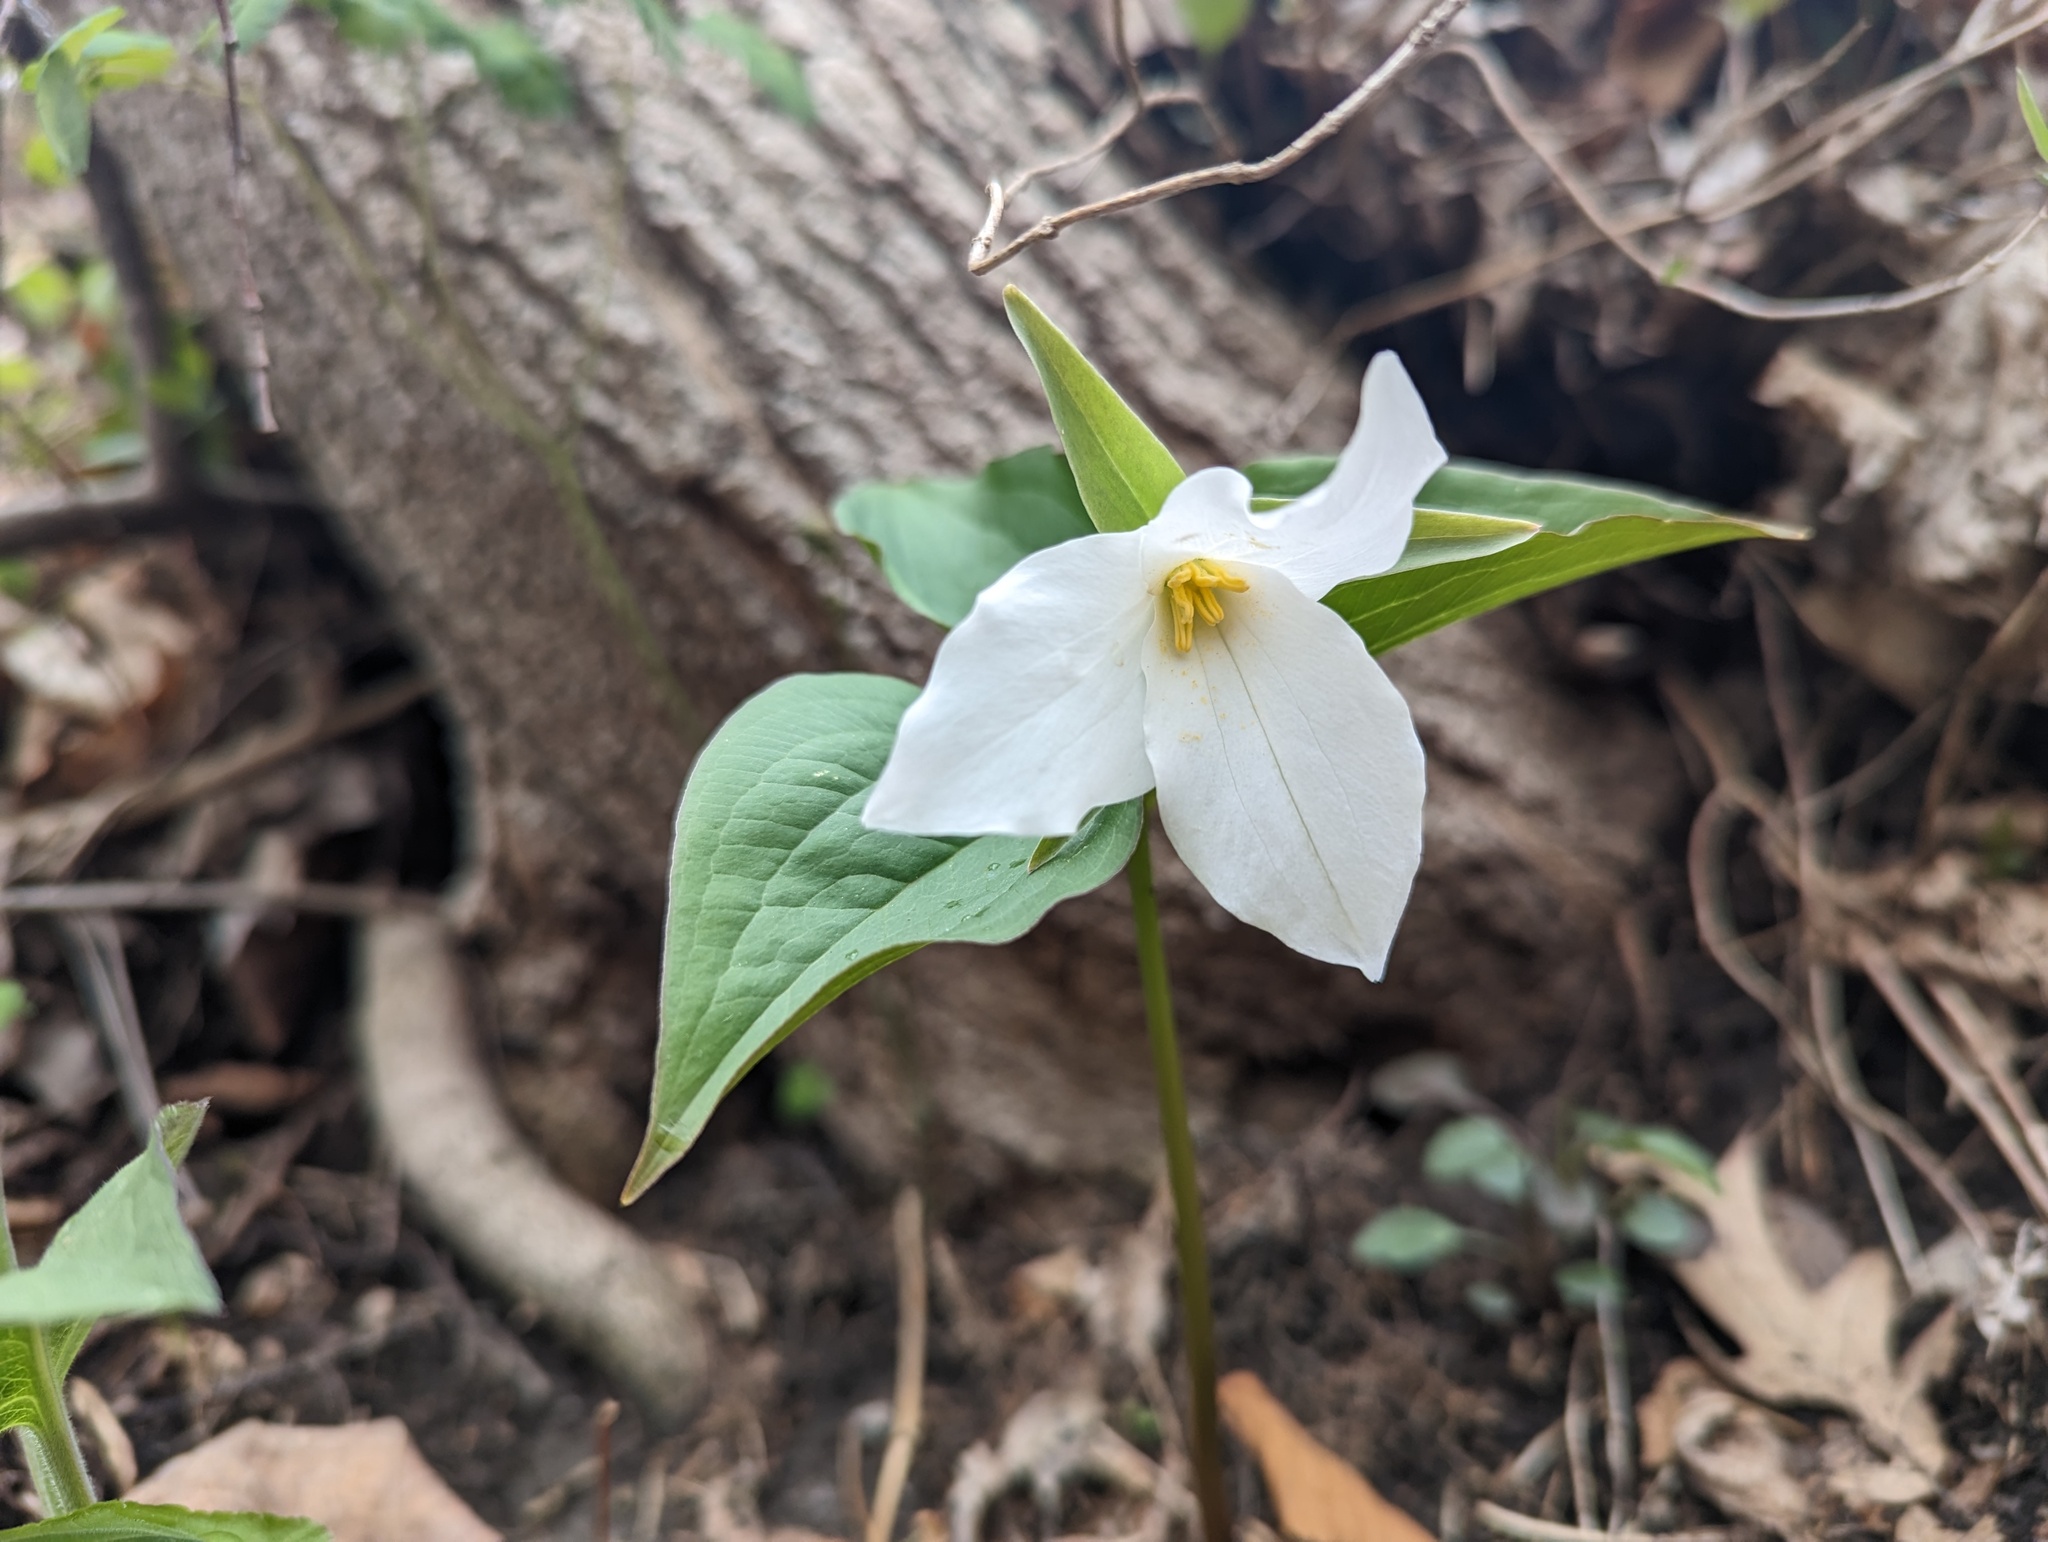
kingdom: Plantae
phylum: Tracheophyta
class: Liliopsida
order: Liliales
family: Melanthiaceae
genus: Trillium
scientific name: Trillium grandiflorum
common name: Great white trillium
